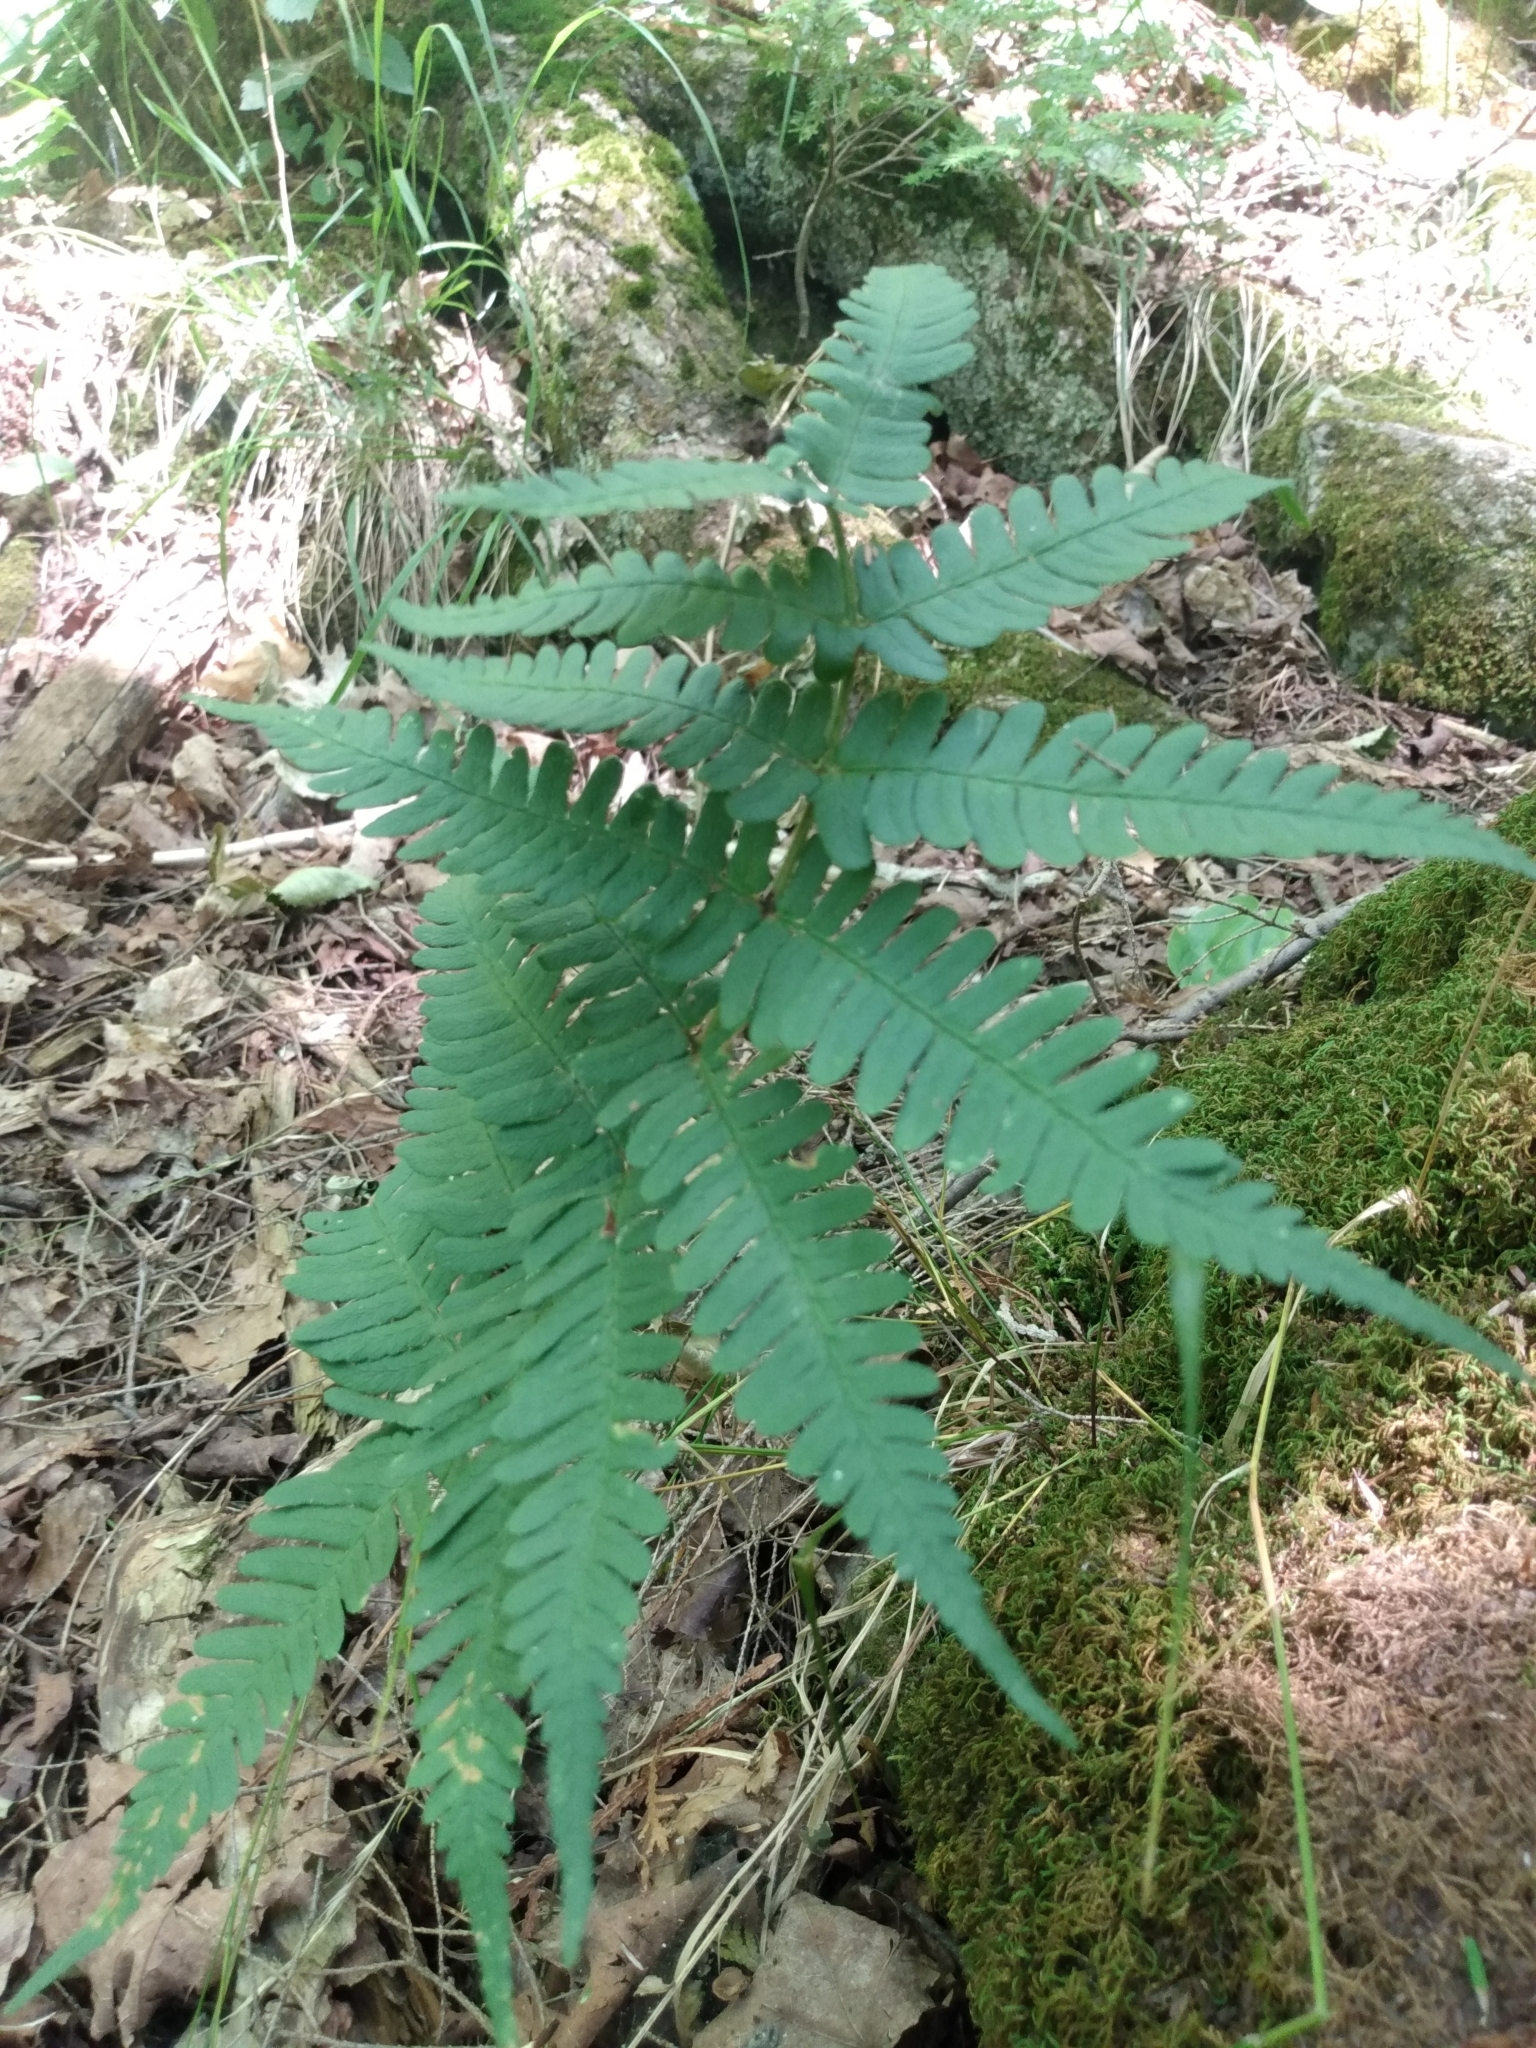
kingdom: Plantae
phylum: Tracheophyta
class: Polypodiopsida
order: Polypodiales
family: Dryopteridaceae
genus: Dryopteris
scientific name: Dryopteris marginalis
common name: Marginal wood fern
